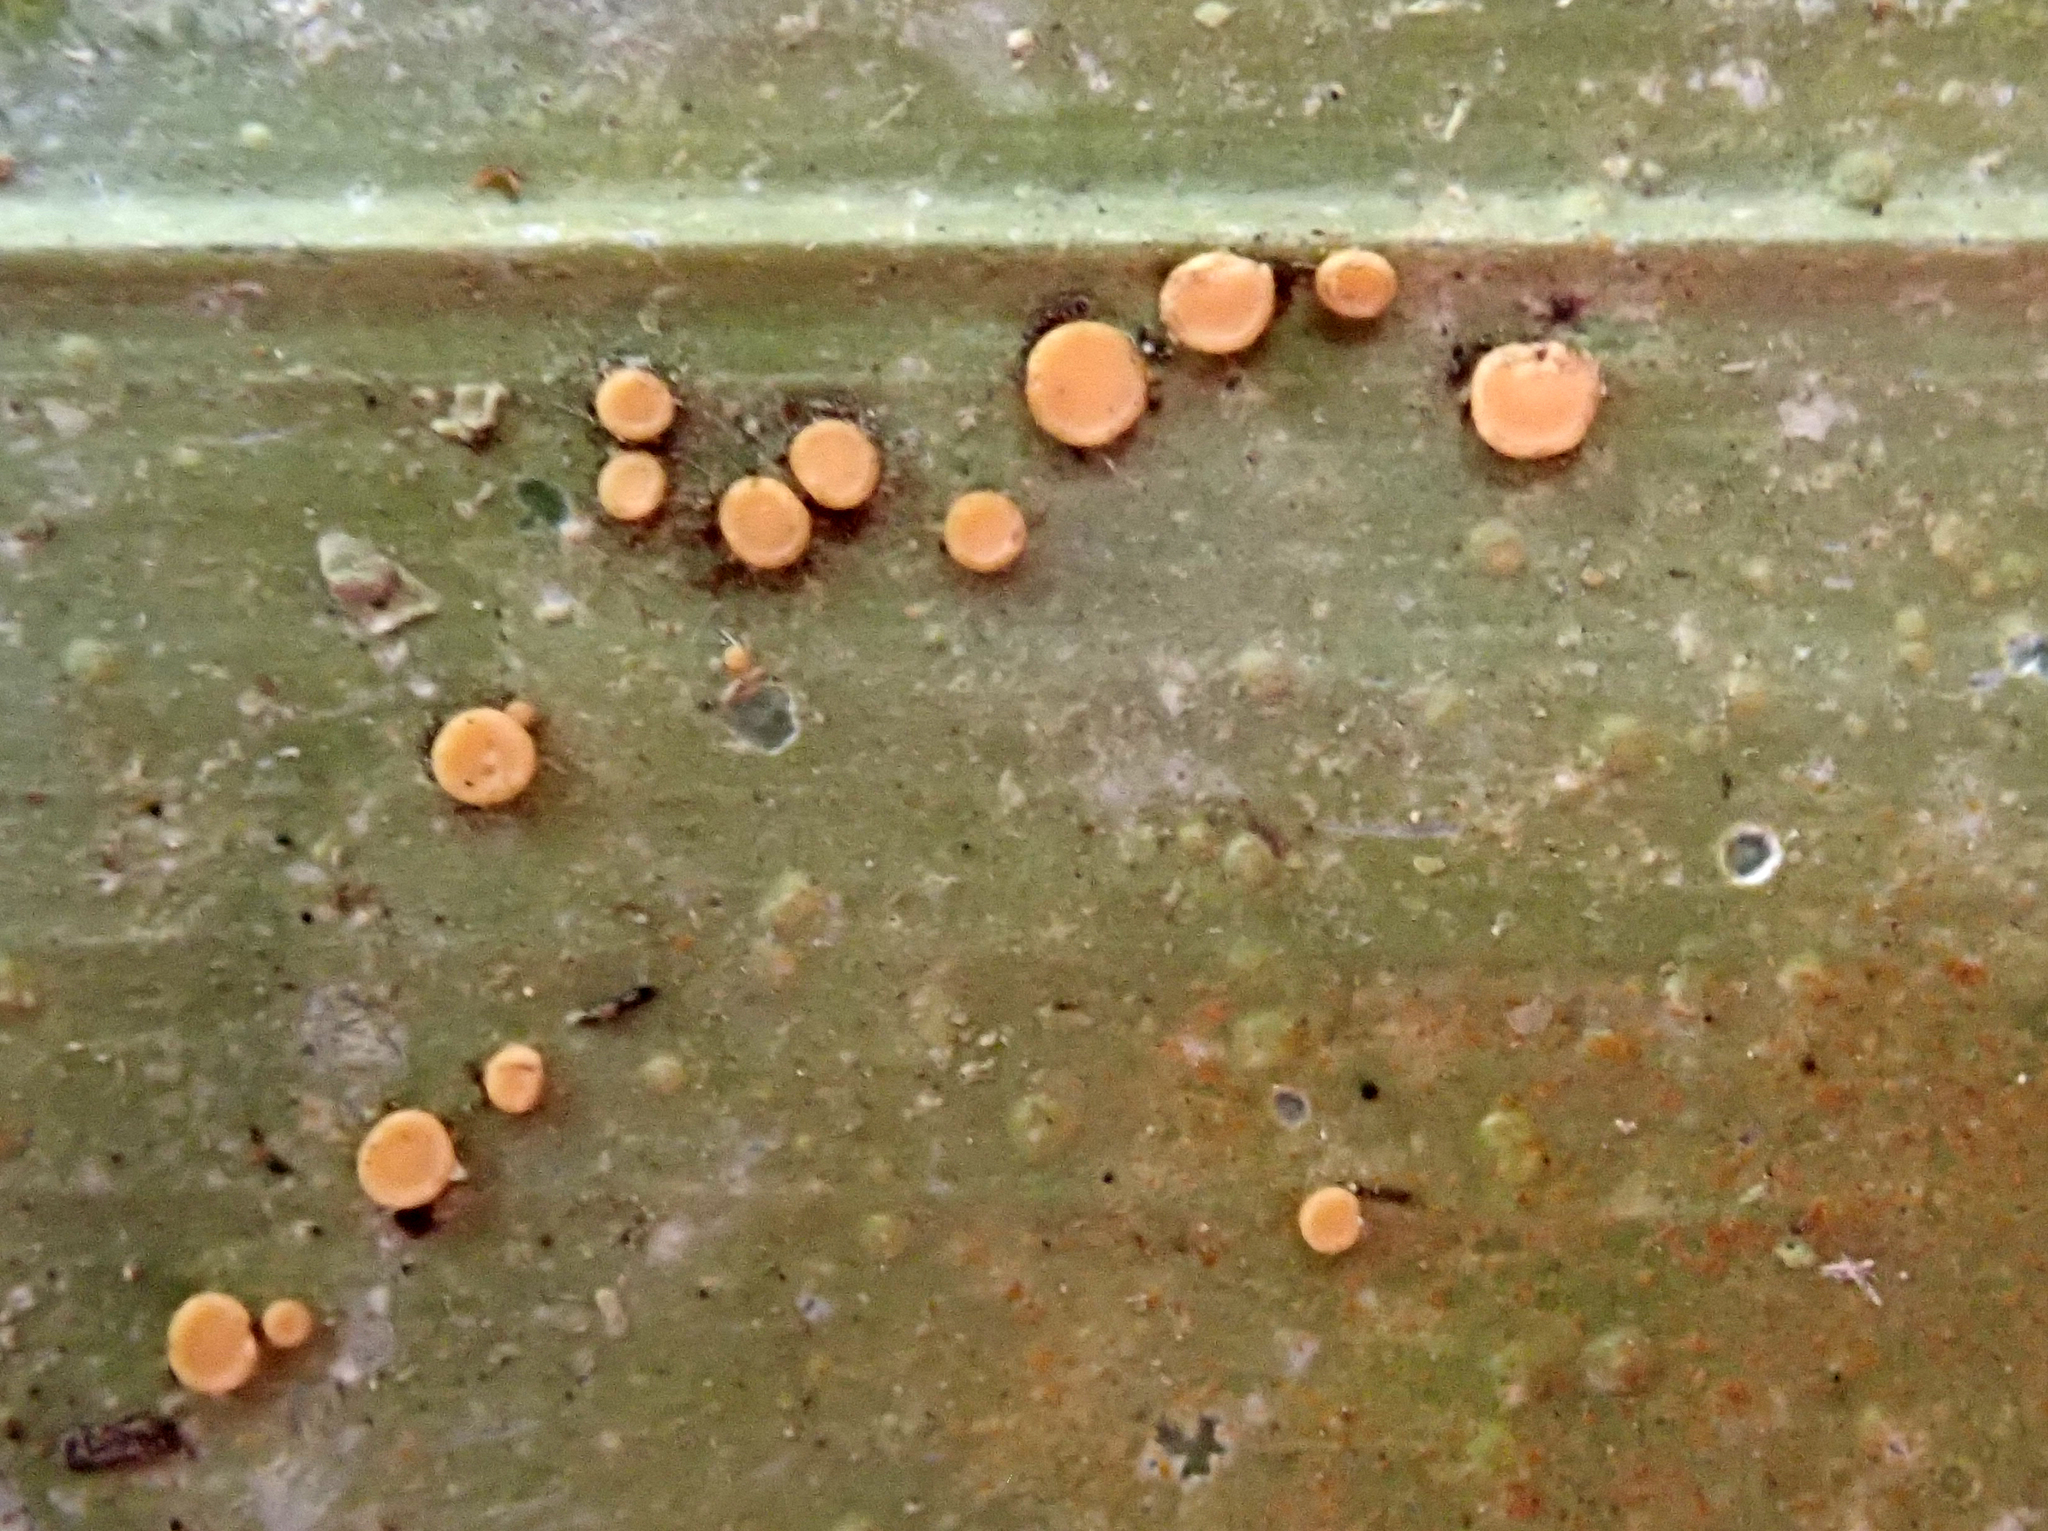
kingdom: Fungi
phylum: Ascomycota
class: Lecanoromycetes
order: Ostropales
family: Coenogoniaceae
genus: Coenogonium
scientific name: Coenogonium fallaciosum
